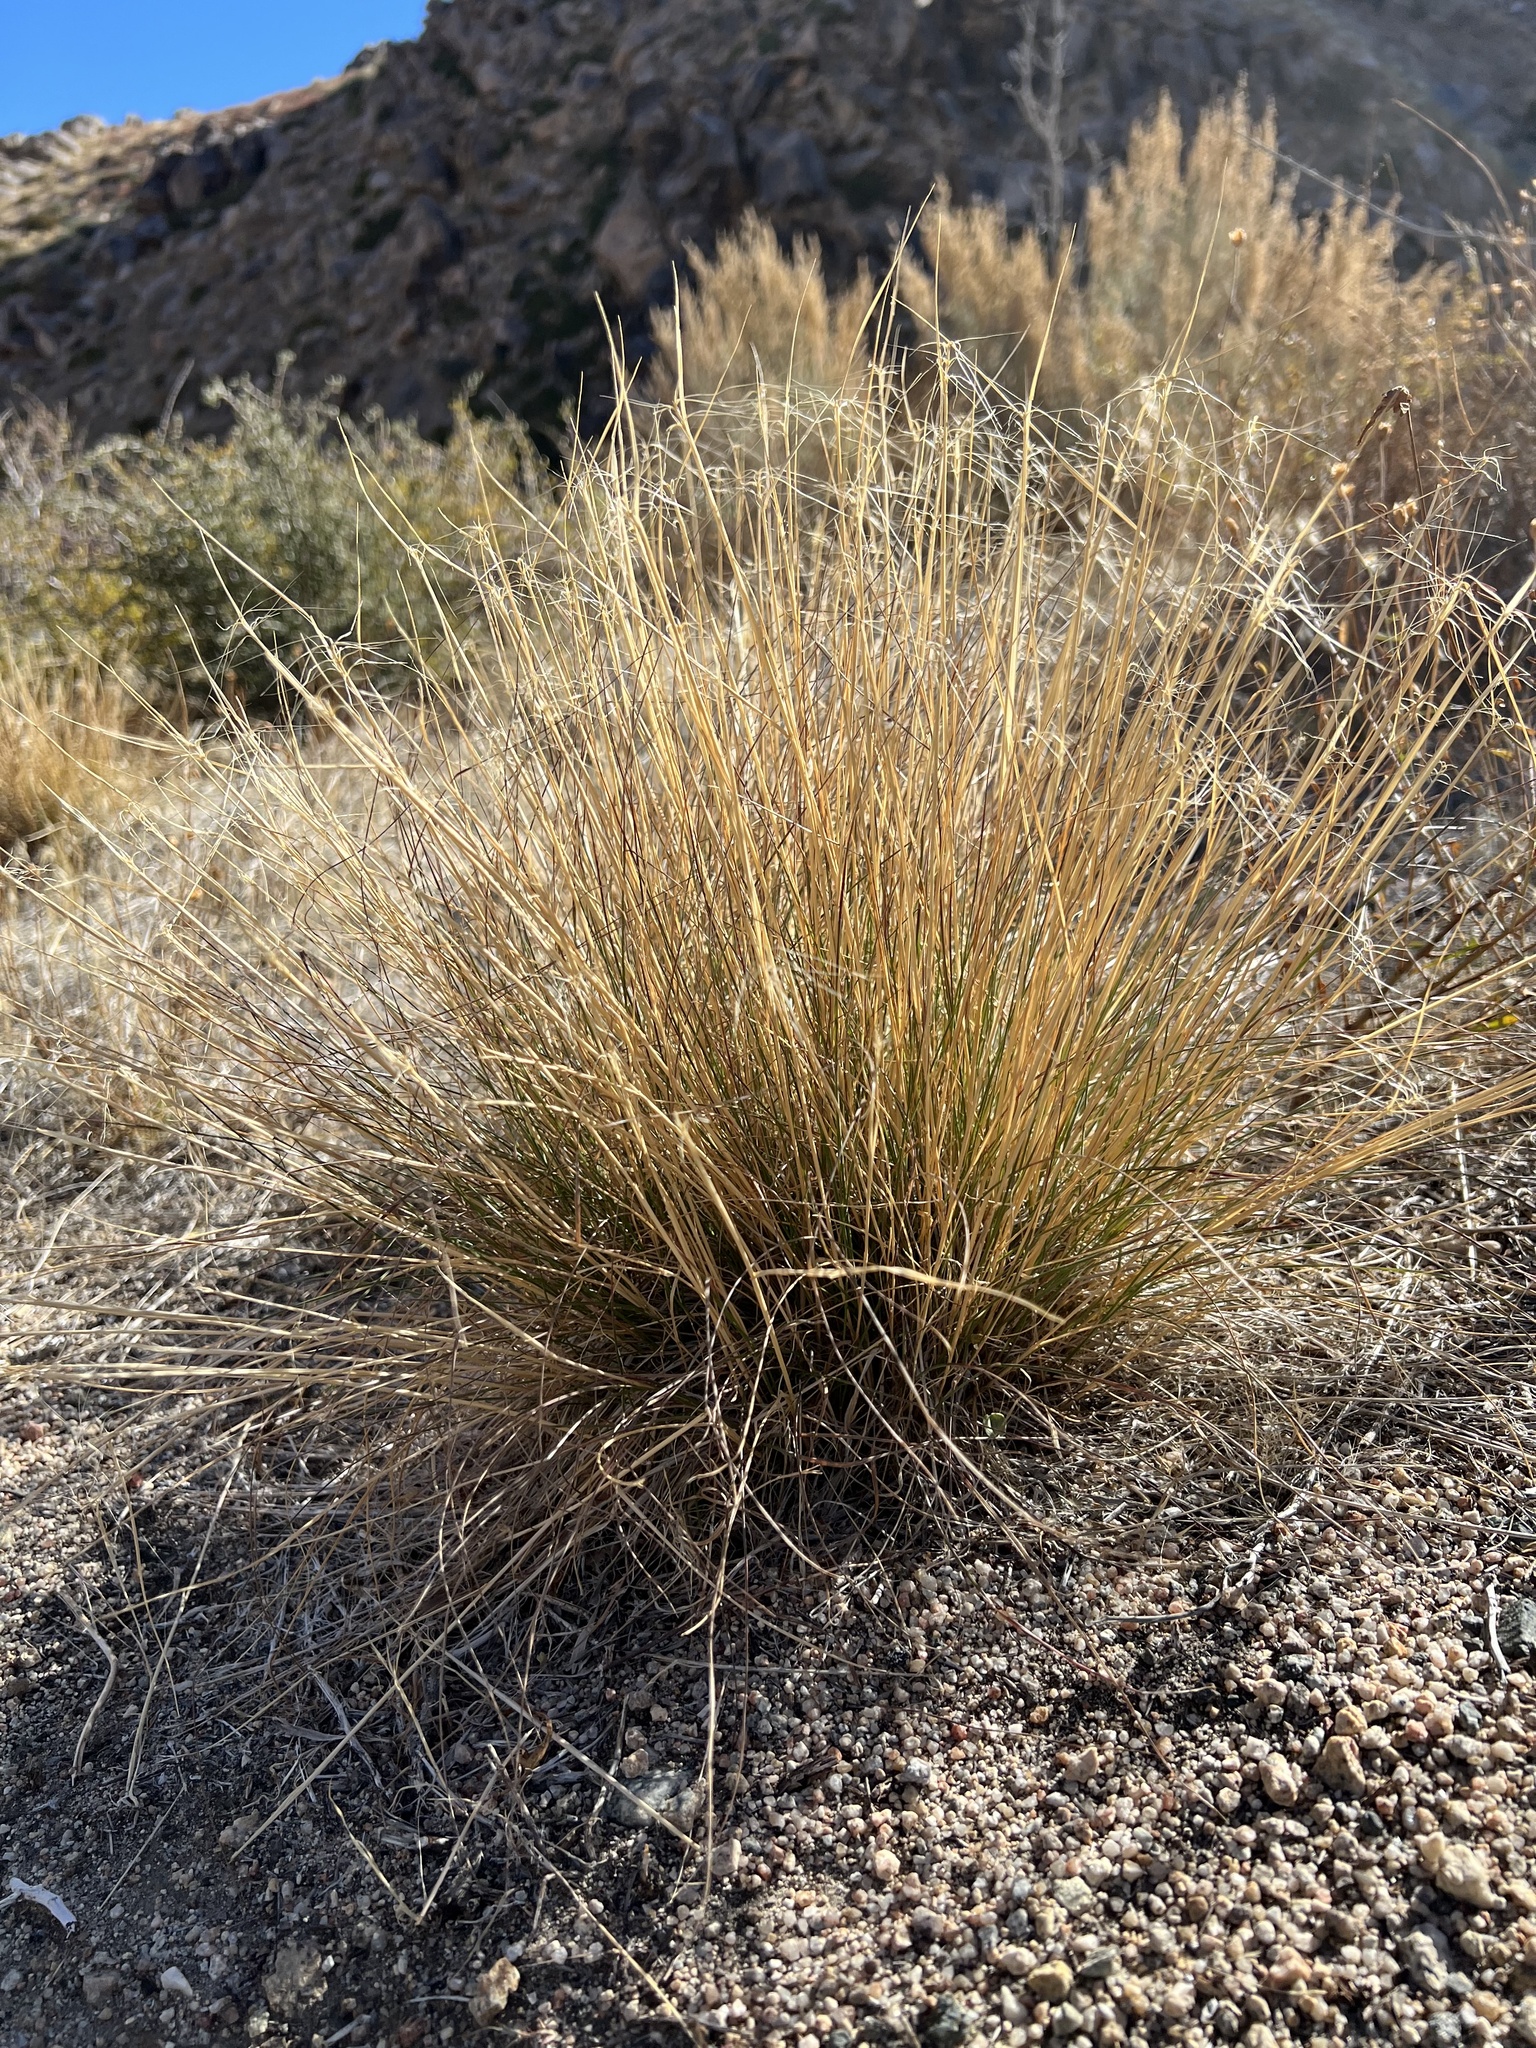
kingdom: Plantae
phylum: Tracheophyta
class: Liliopsida
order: Poales
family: Poaceae
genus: Elymus
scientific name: Elymus elymoides
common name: Bottlebrush squirreltail
